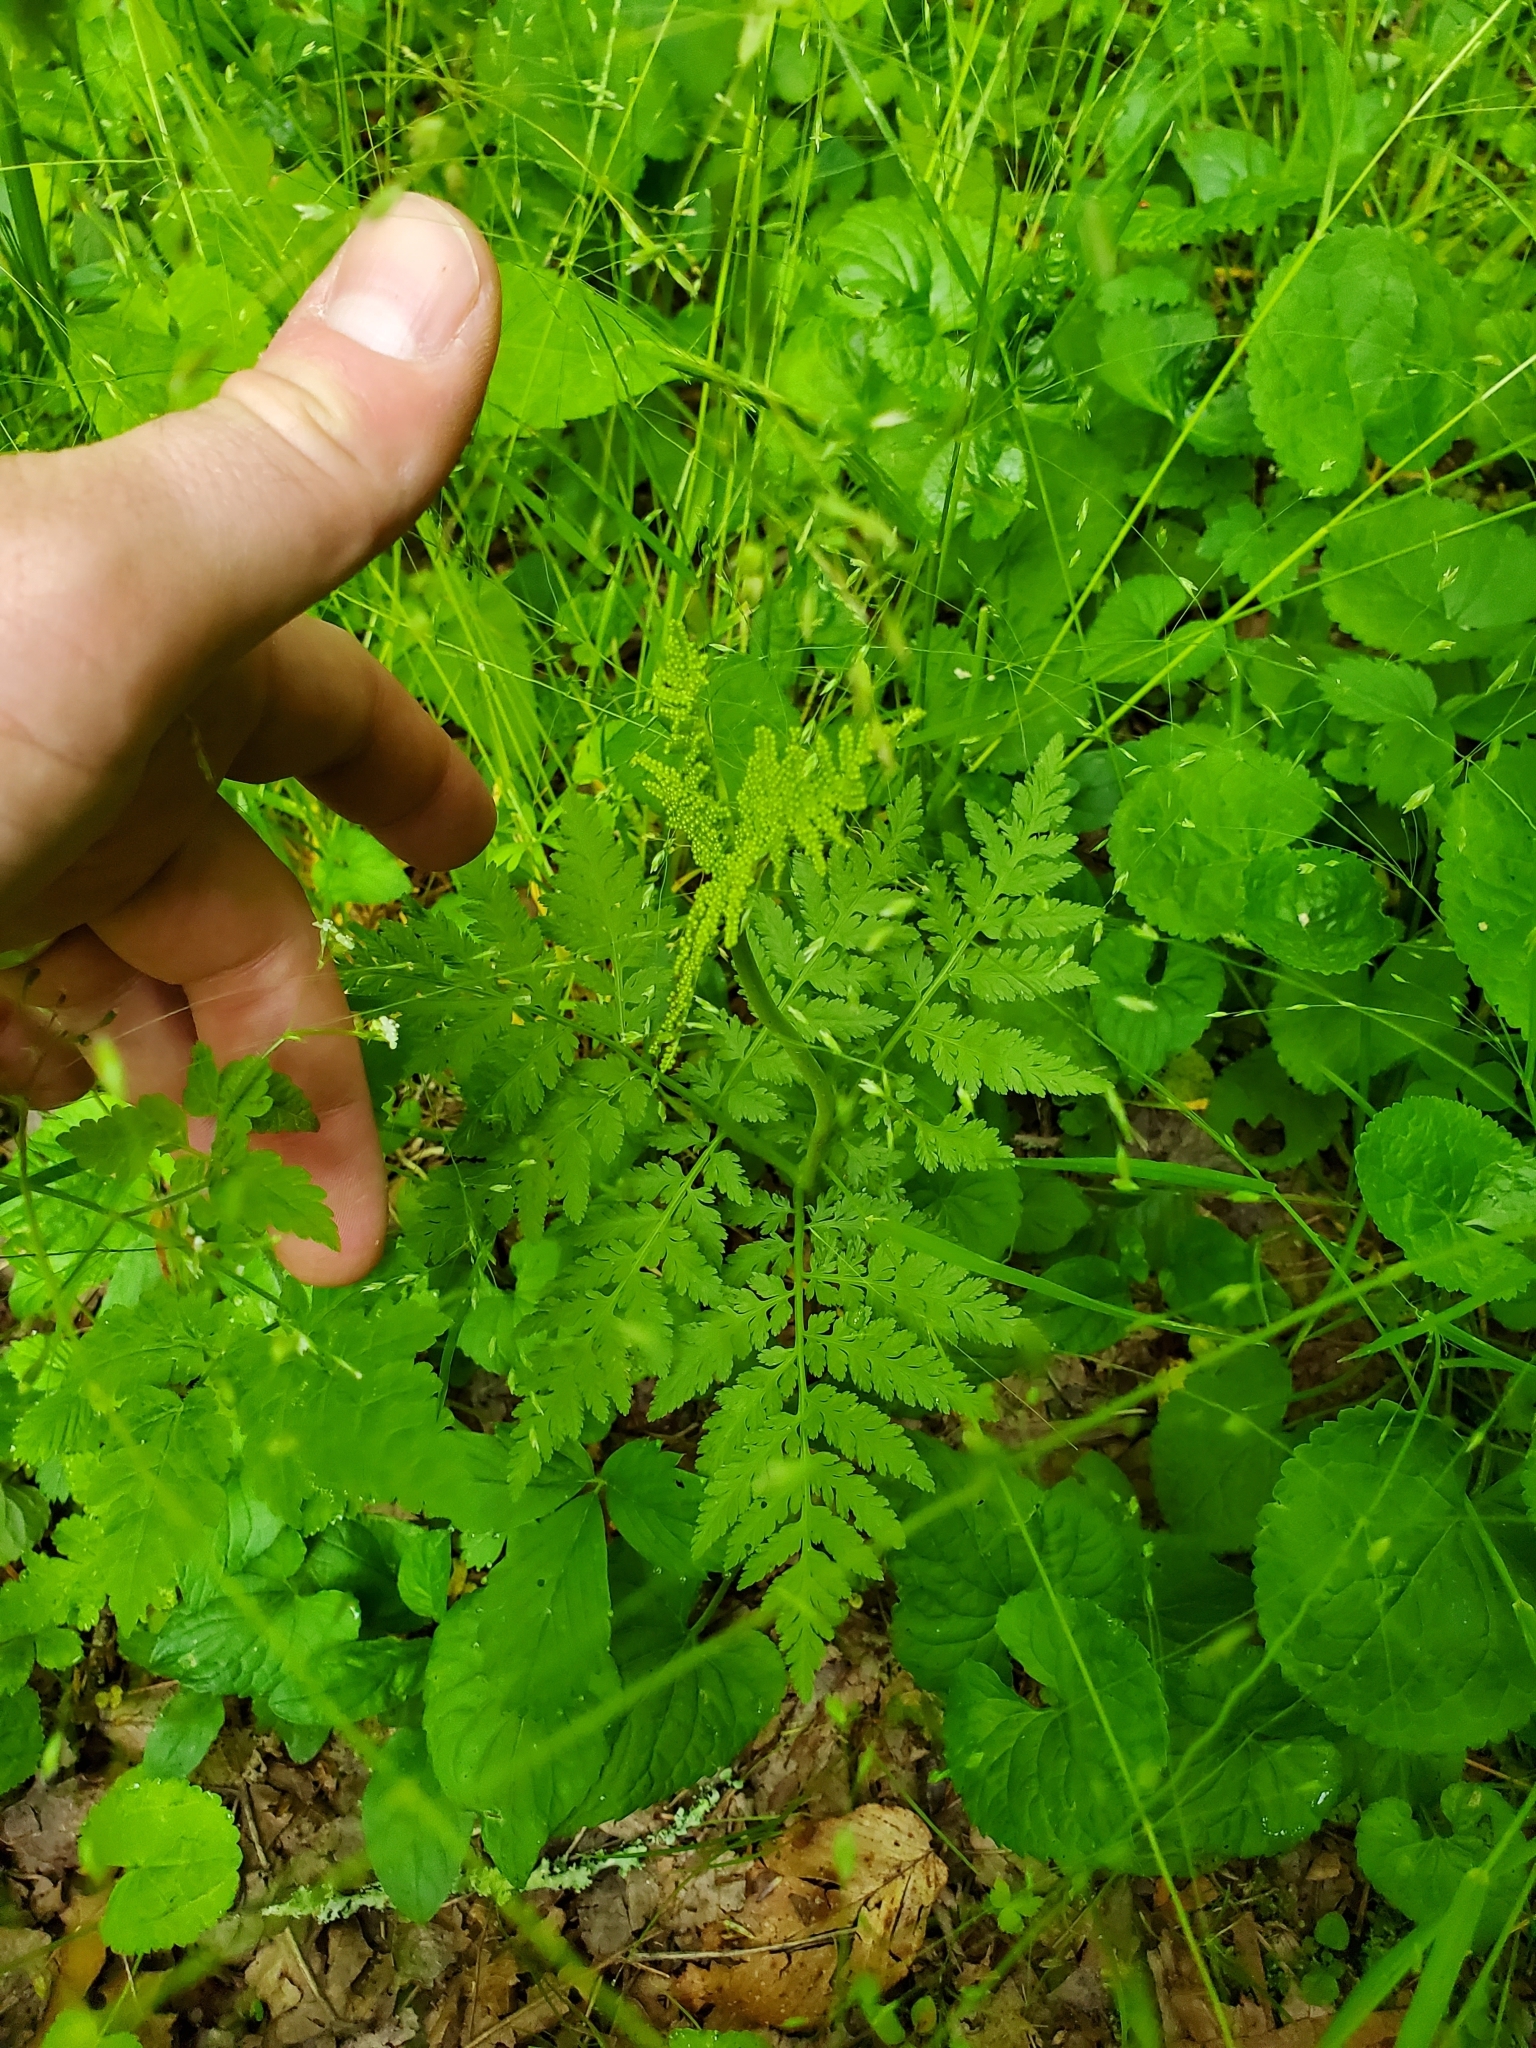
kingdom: Plantae
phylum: Tracheophyta
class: Polypodiopsida
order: Ophioglossales
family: Ophioglossaceae
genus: Botrypus
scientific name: Botrypus virginianus
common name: Common grapefern
